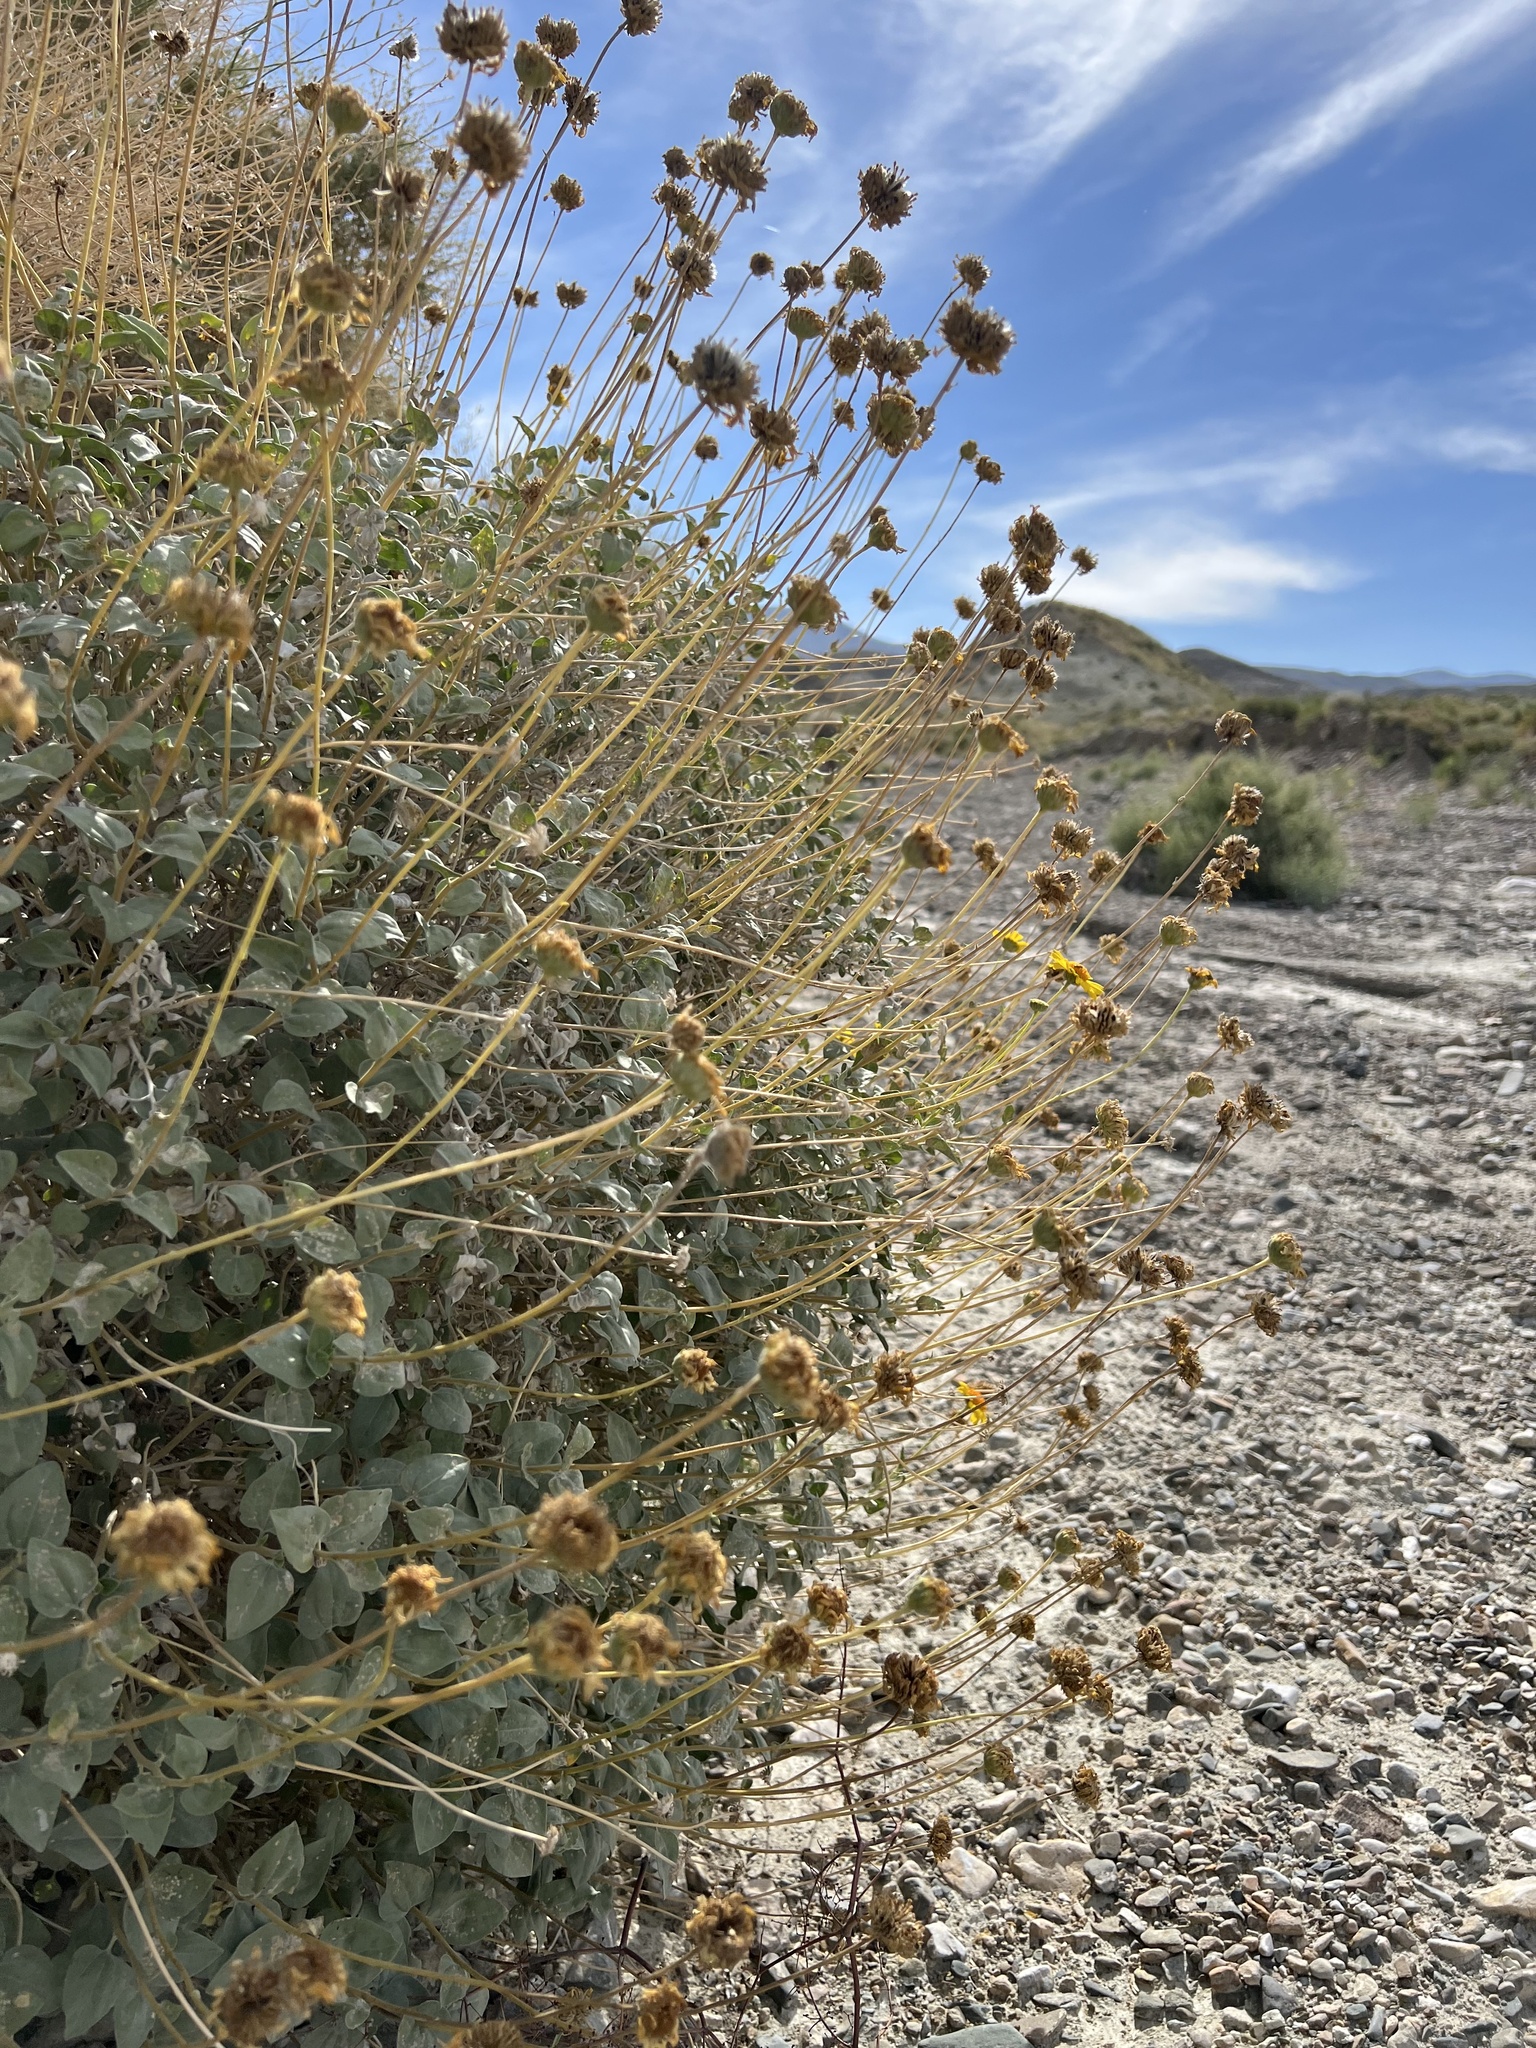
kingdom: Plantae
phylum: Tracheophyta
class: Magnoliopsida
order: Asterales
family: Asteraceae
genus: Encelia
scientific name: Encelia actoni
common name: Acton encelia
